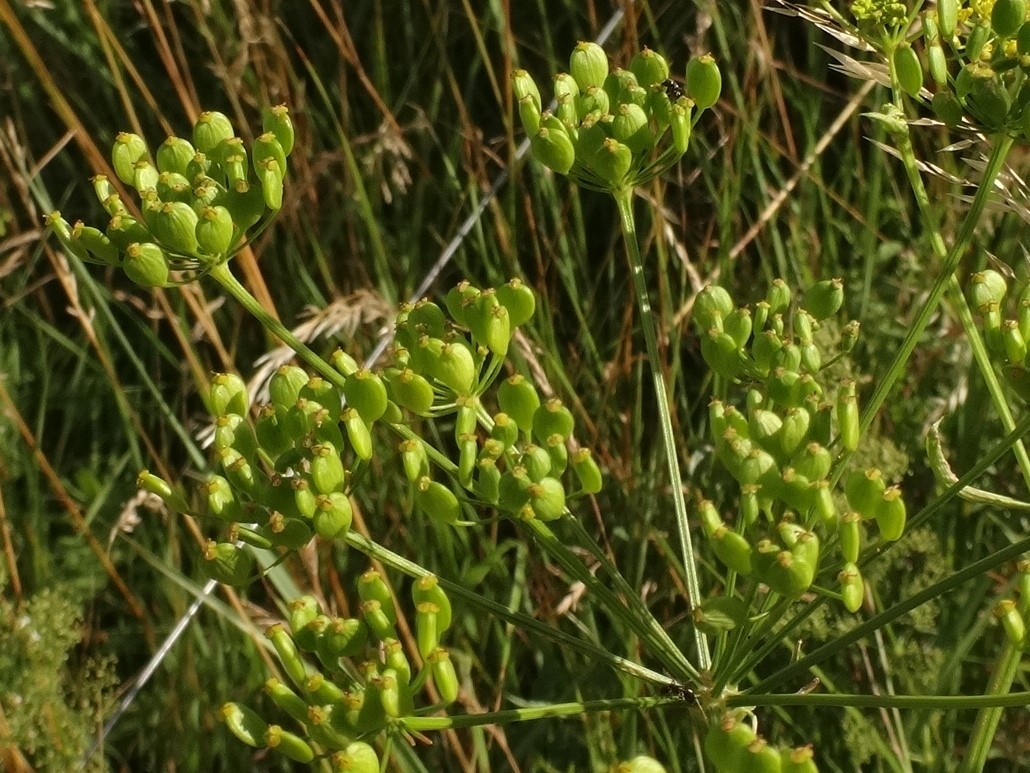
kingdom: Plantae
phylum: Tracheophyta
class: Magnoliopsida
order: Apiales
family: Apiaceae
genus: Pastinaca
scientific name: Pastinaca sativa
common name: Wild parsnip
